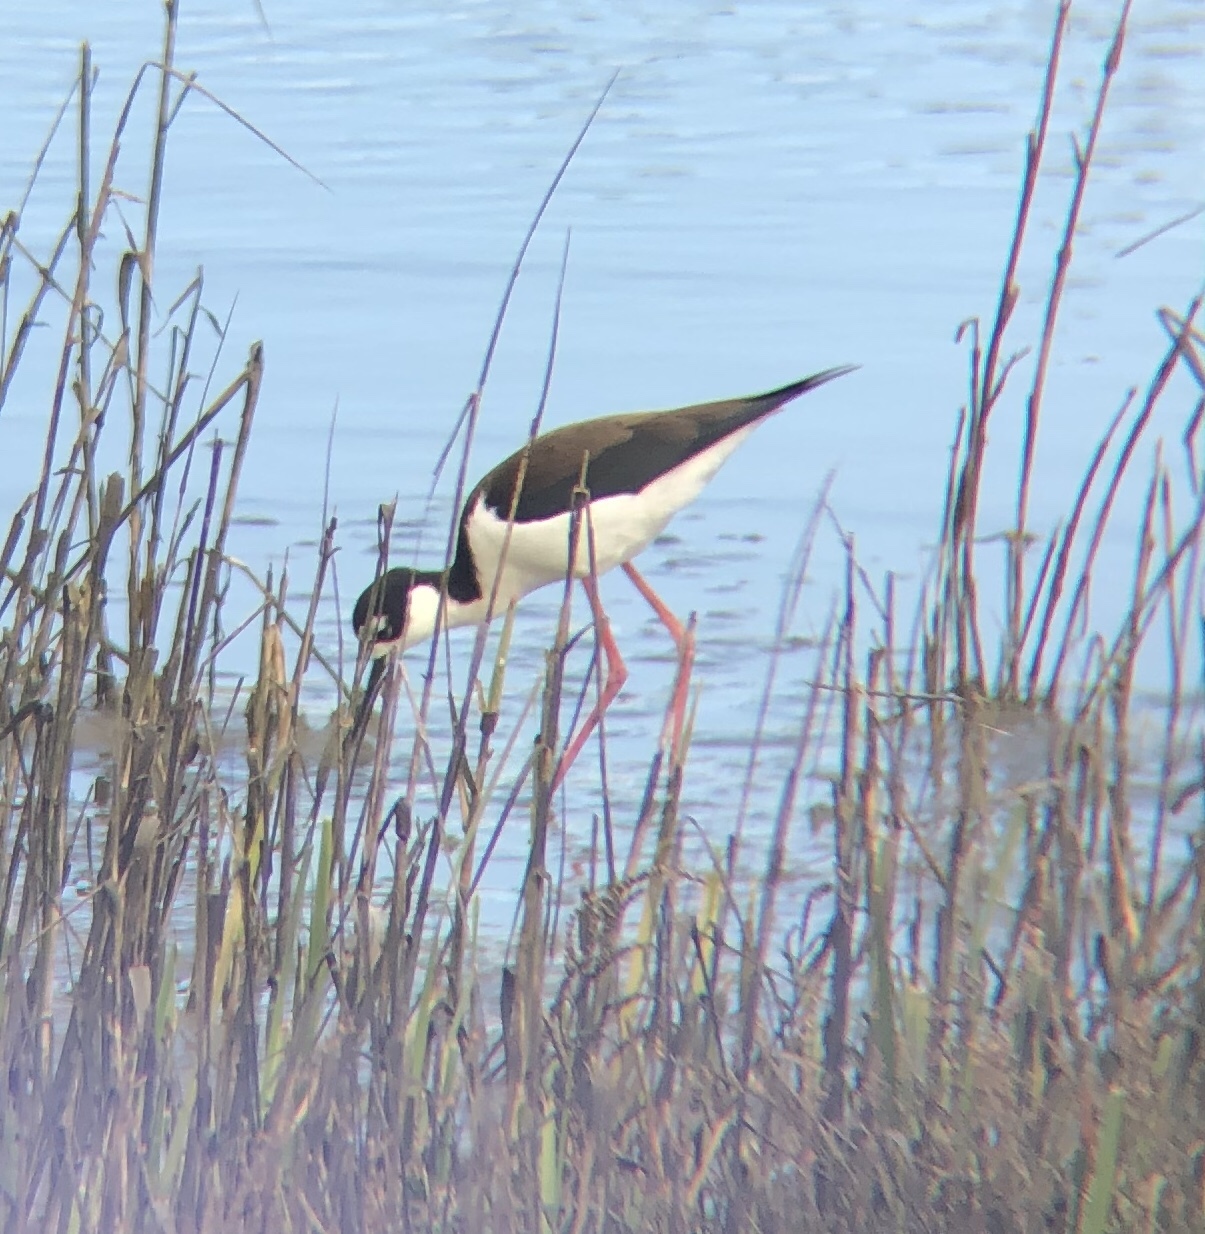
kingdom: Animalia
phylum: Chordata
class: Aves
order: Charadriiformes
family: Recurvirostridae
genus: Himantopus
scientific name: Himantopus mexicanus
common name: Black-necked stilt
